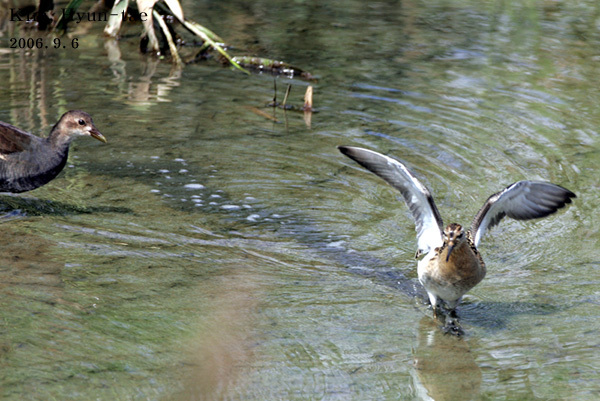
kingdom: Animalia
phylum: Chordata
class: Aves
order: Charadriiformes
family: Scolopacidae
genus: Calidris
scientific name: Calidris pugnax
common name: Ruff
